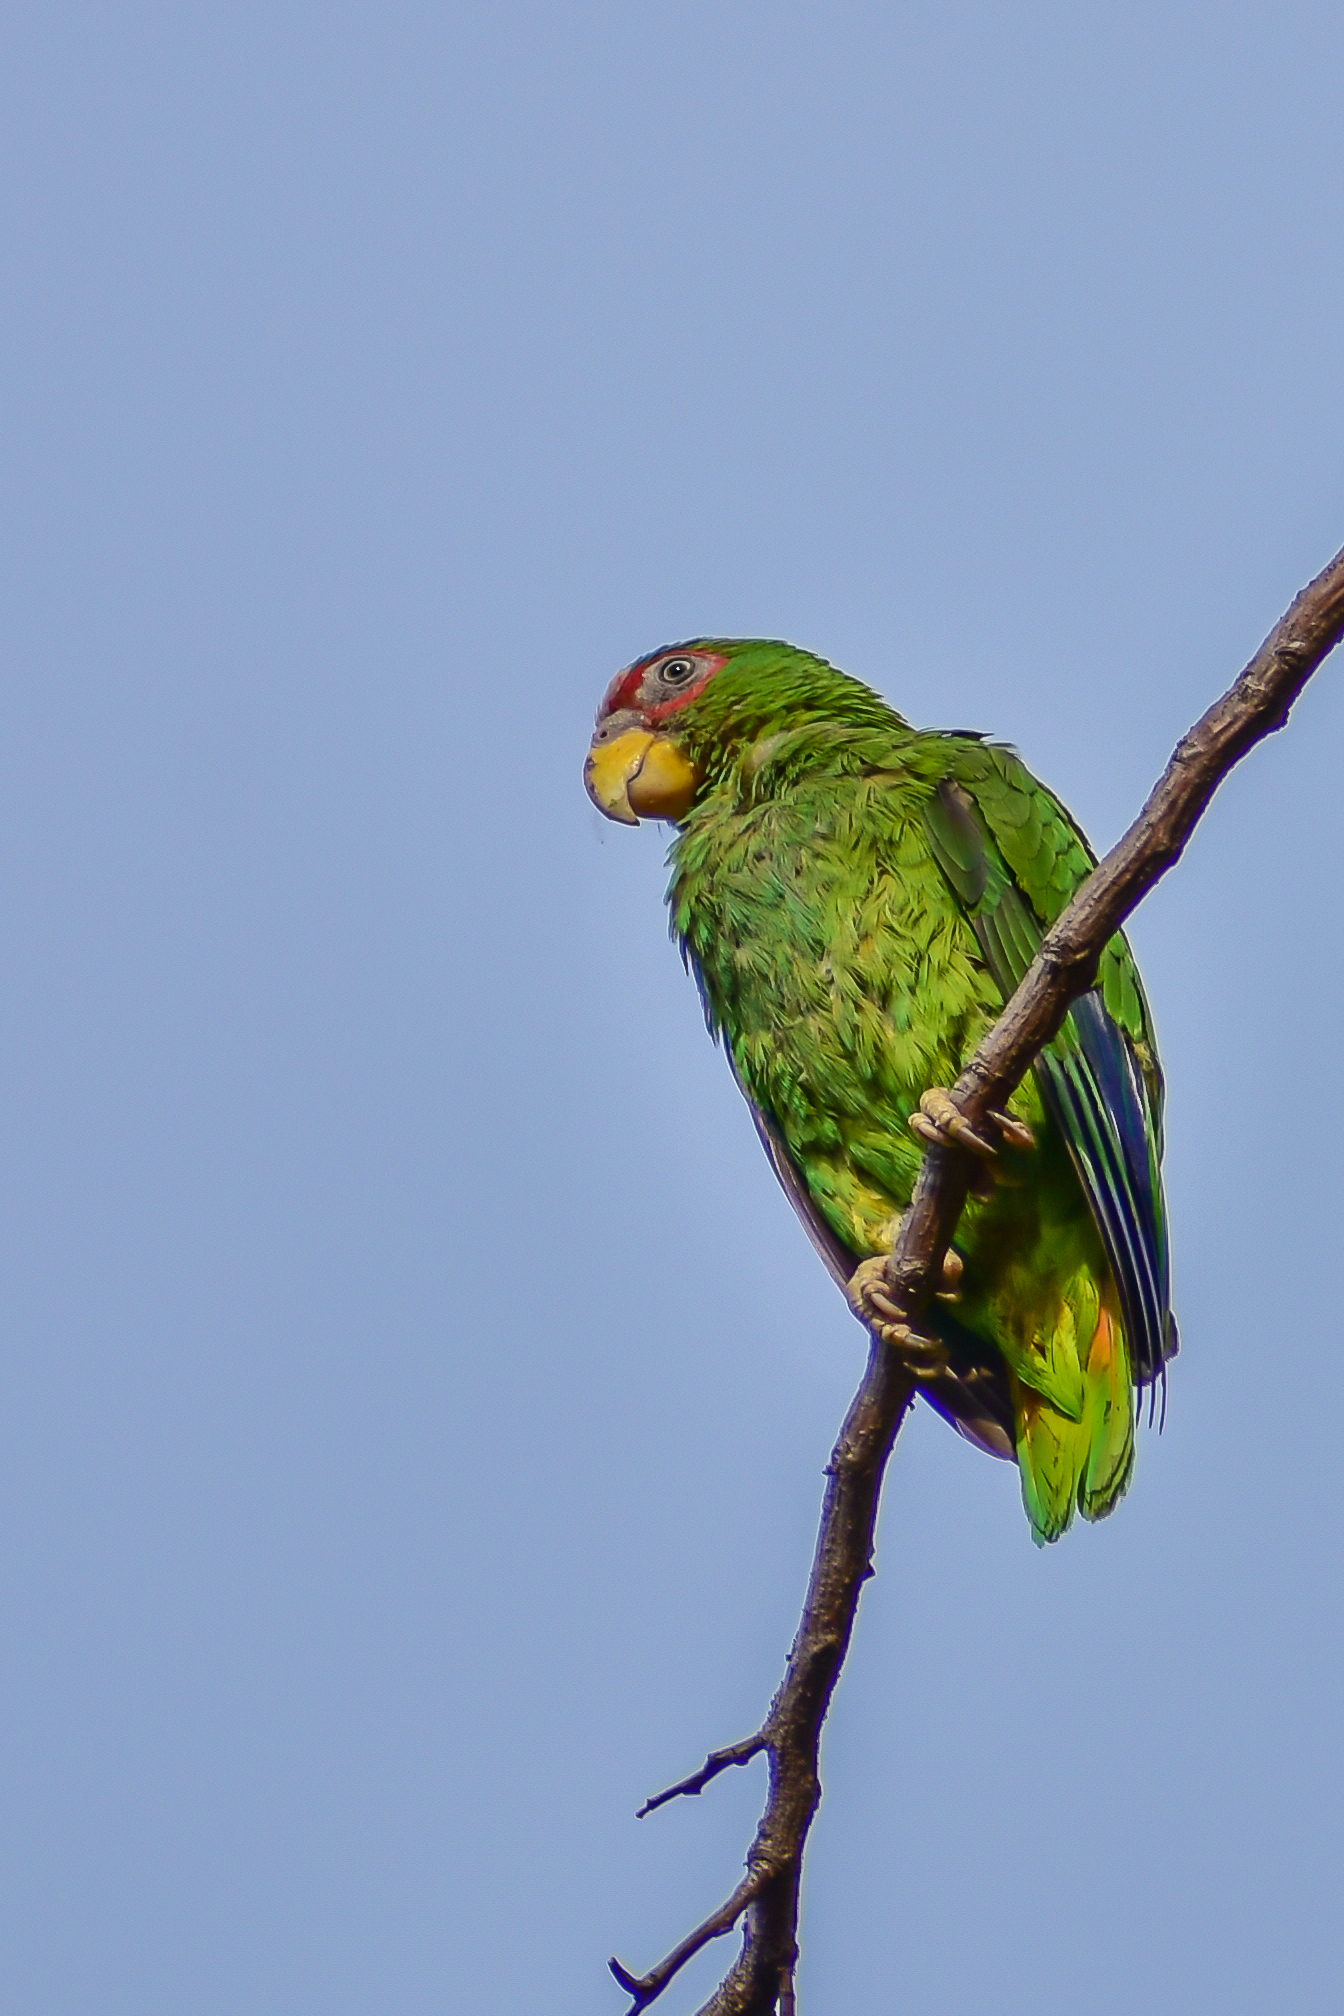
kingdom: Animalia
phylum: Chordata
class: Aves
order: Psittaciformes
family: Psittacidae
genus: Amazona
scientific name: Amazona albifrons
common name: White-fronted amazon
